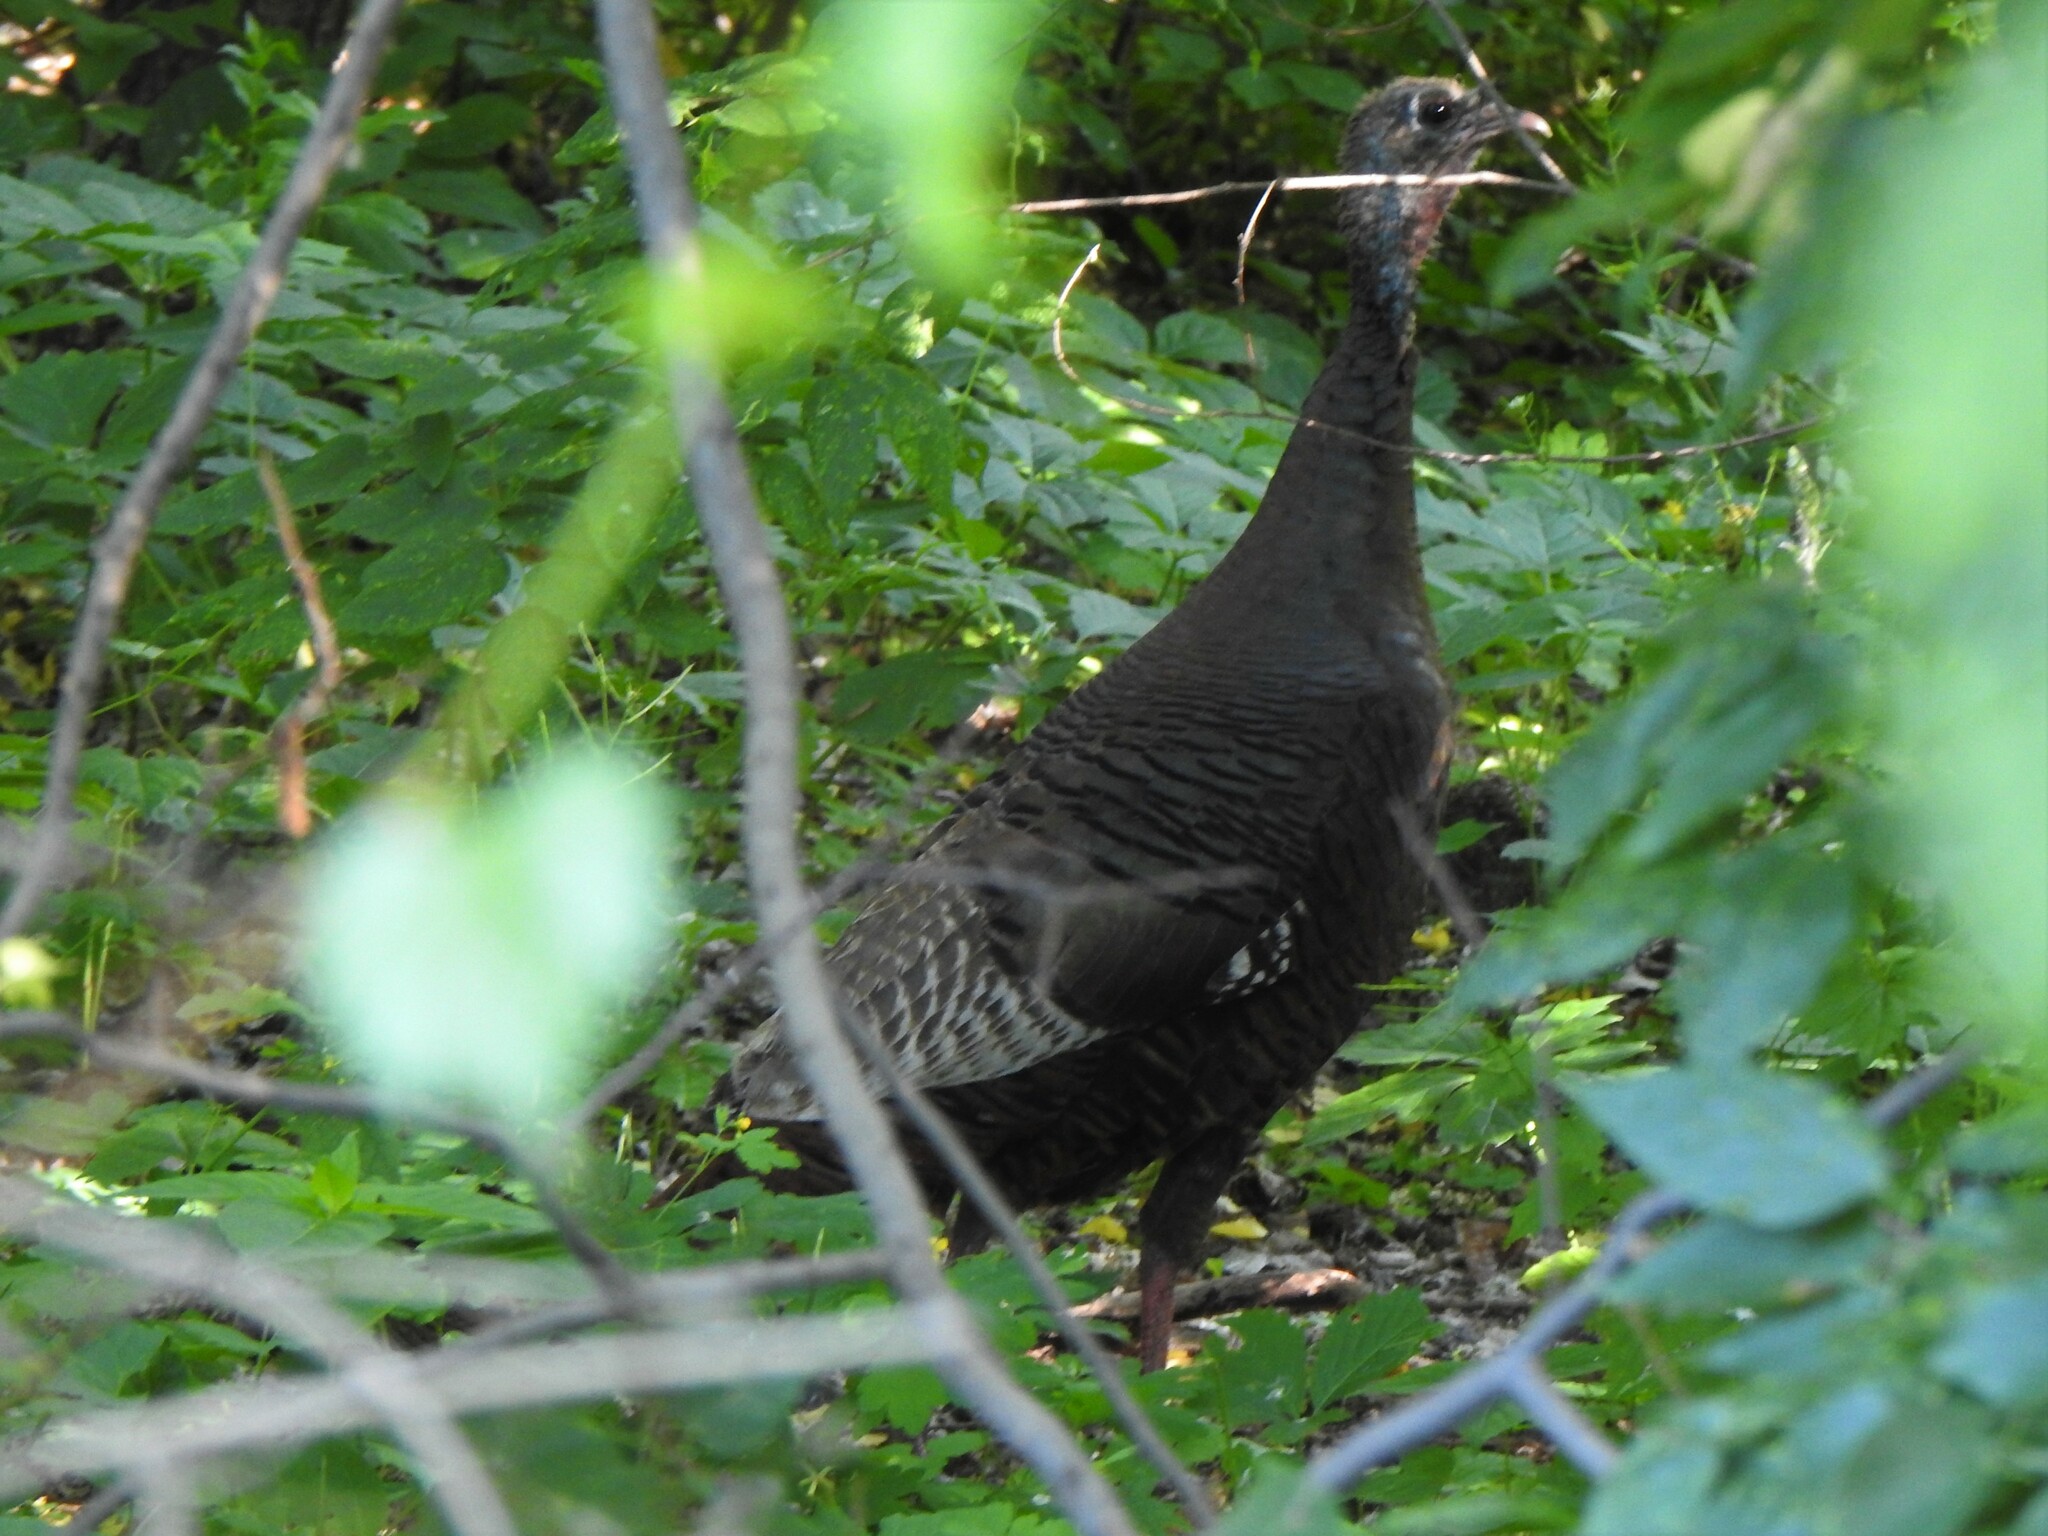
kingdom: Animalia
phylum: Chordata
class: Aves
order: Galliformes
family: Phasianidae
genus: Meleagris
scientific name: Meleagris gallopavo
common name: Wild turkey
